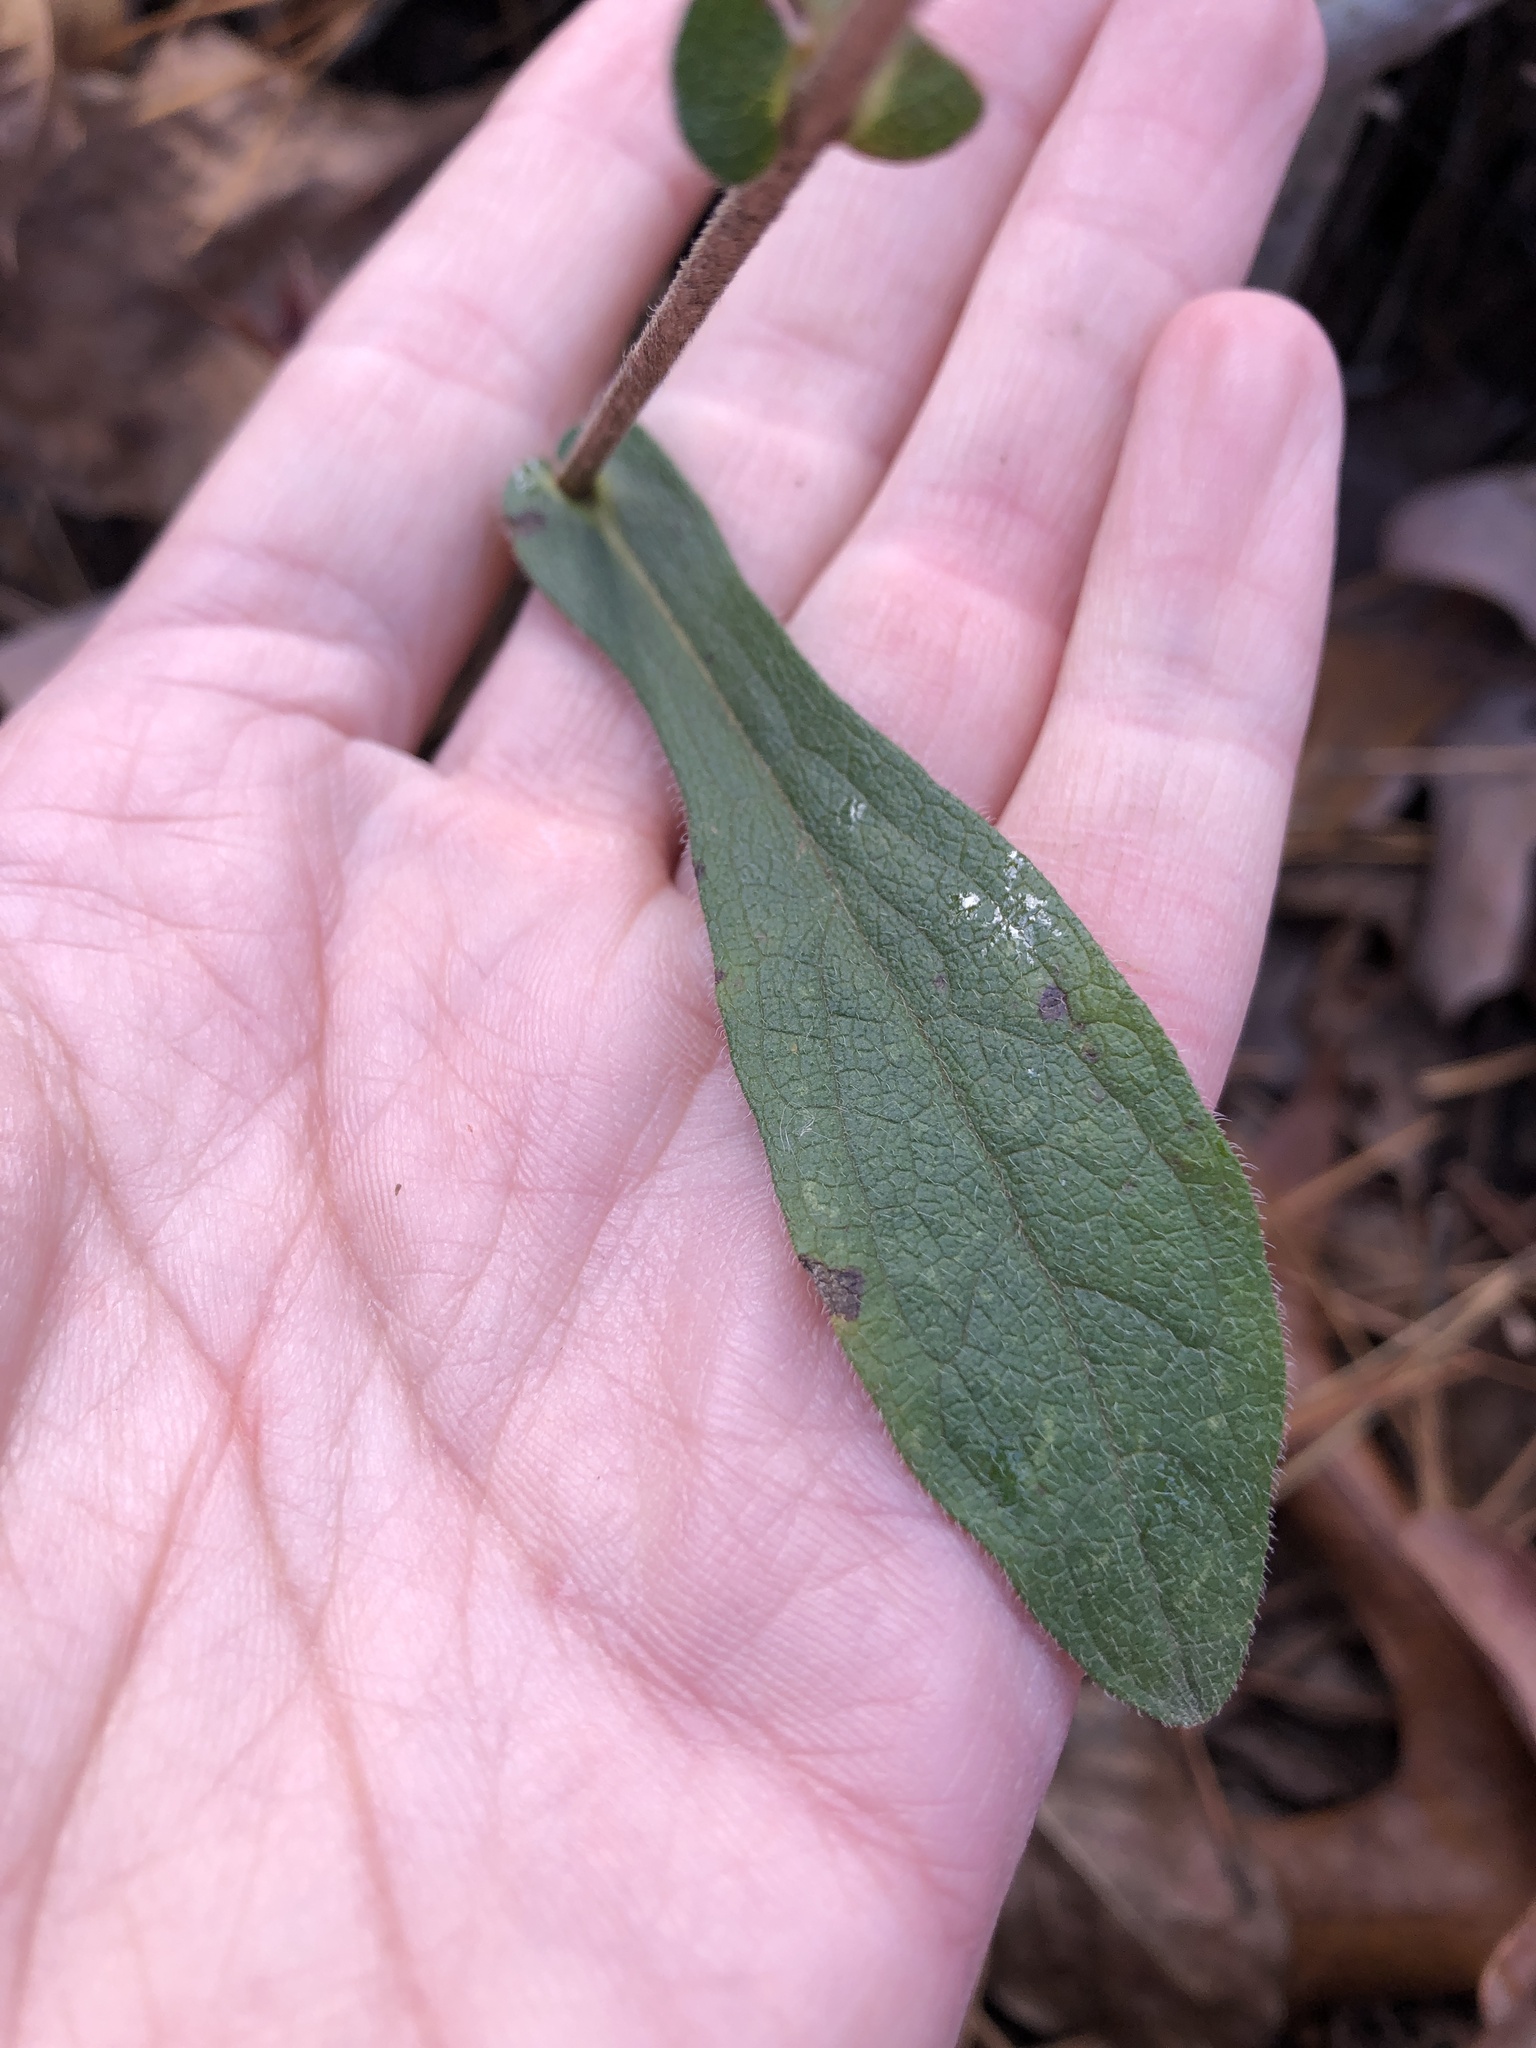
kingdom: Plantae
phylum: Tracheophyta
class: Magnoliopsida
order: Asterales
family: Asteraceae
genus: Symphyotrichum
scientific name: Symphyotrichum patens
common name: Late purple aster
